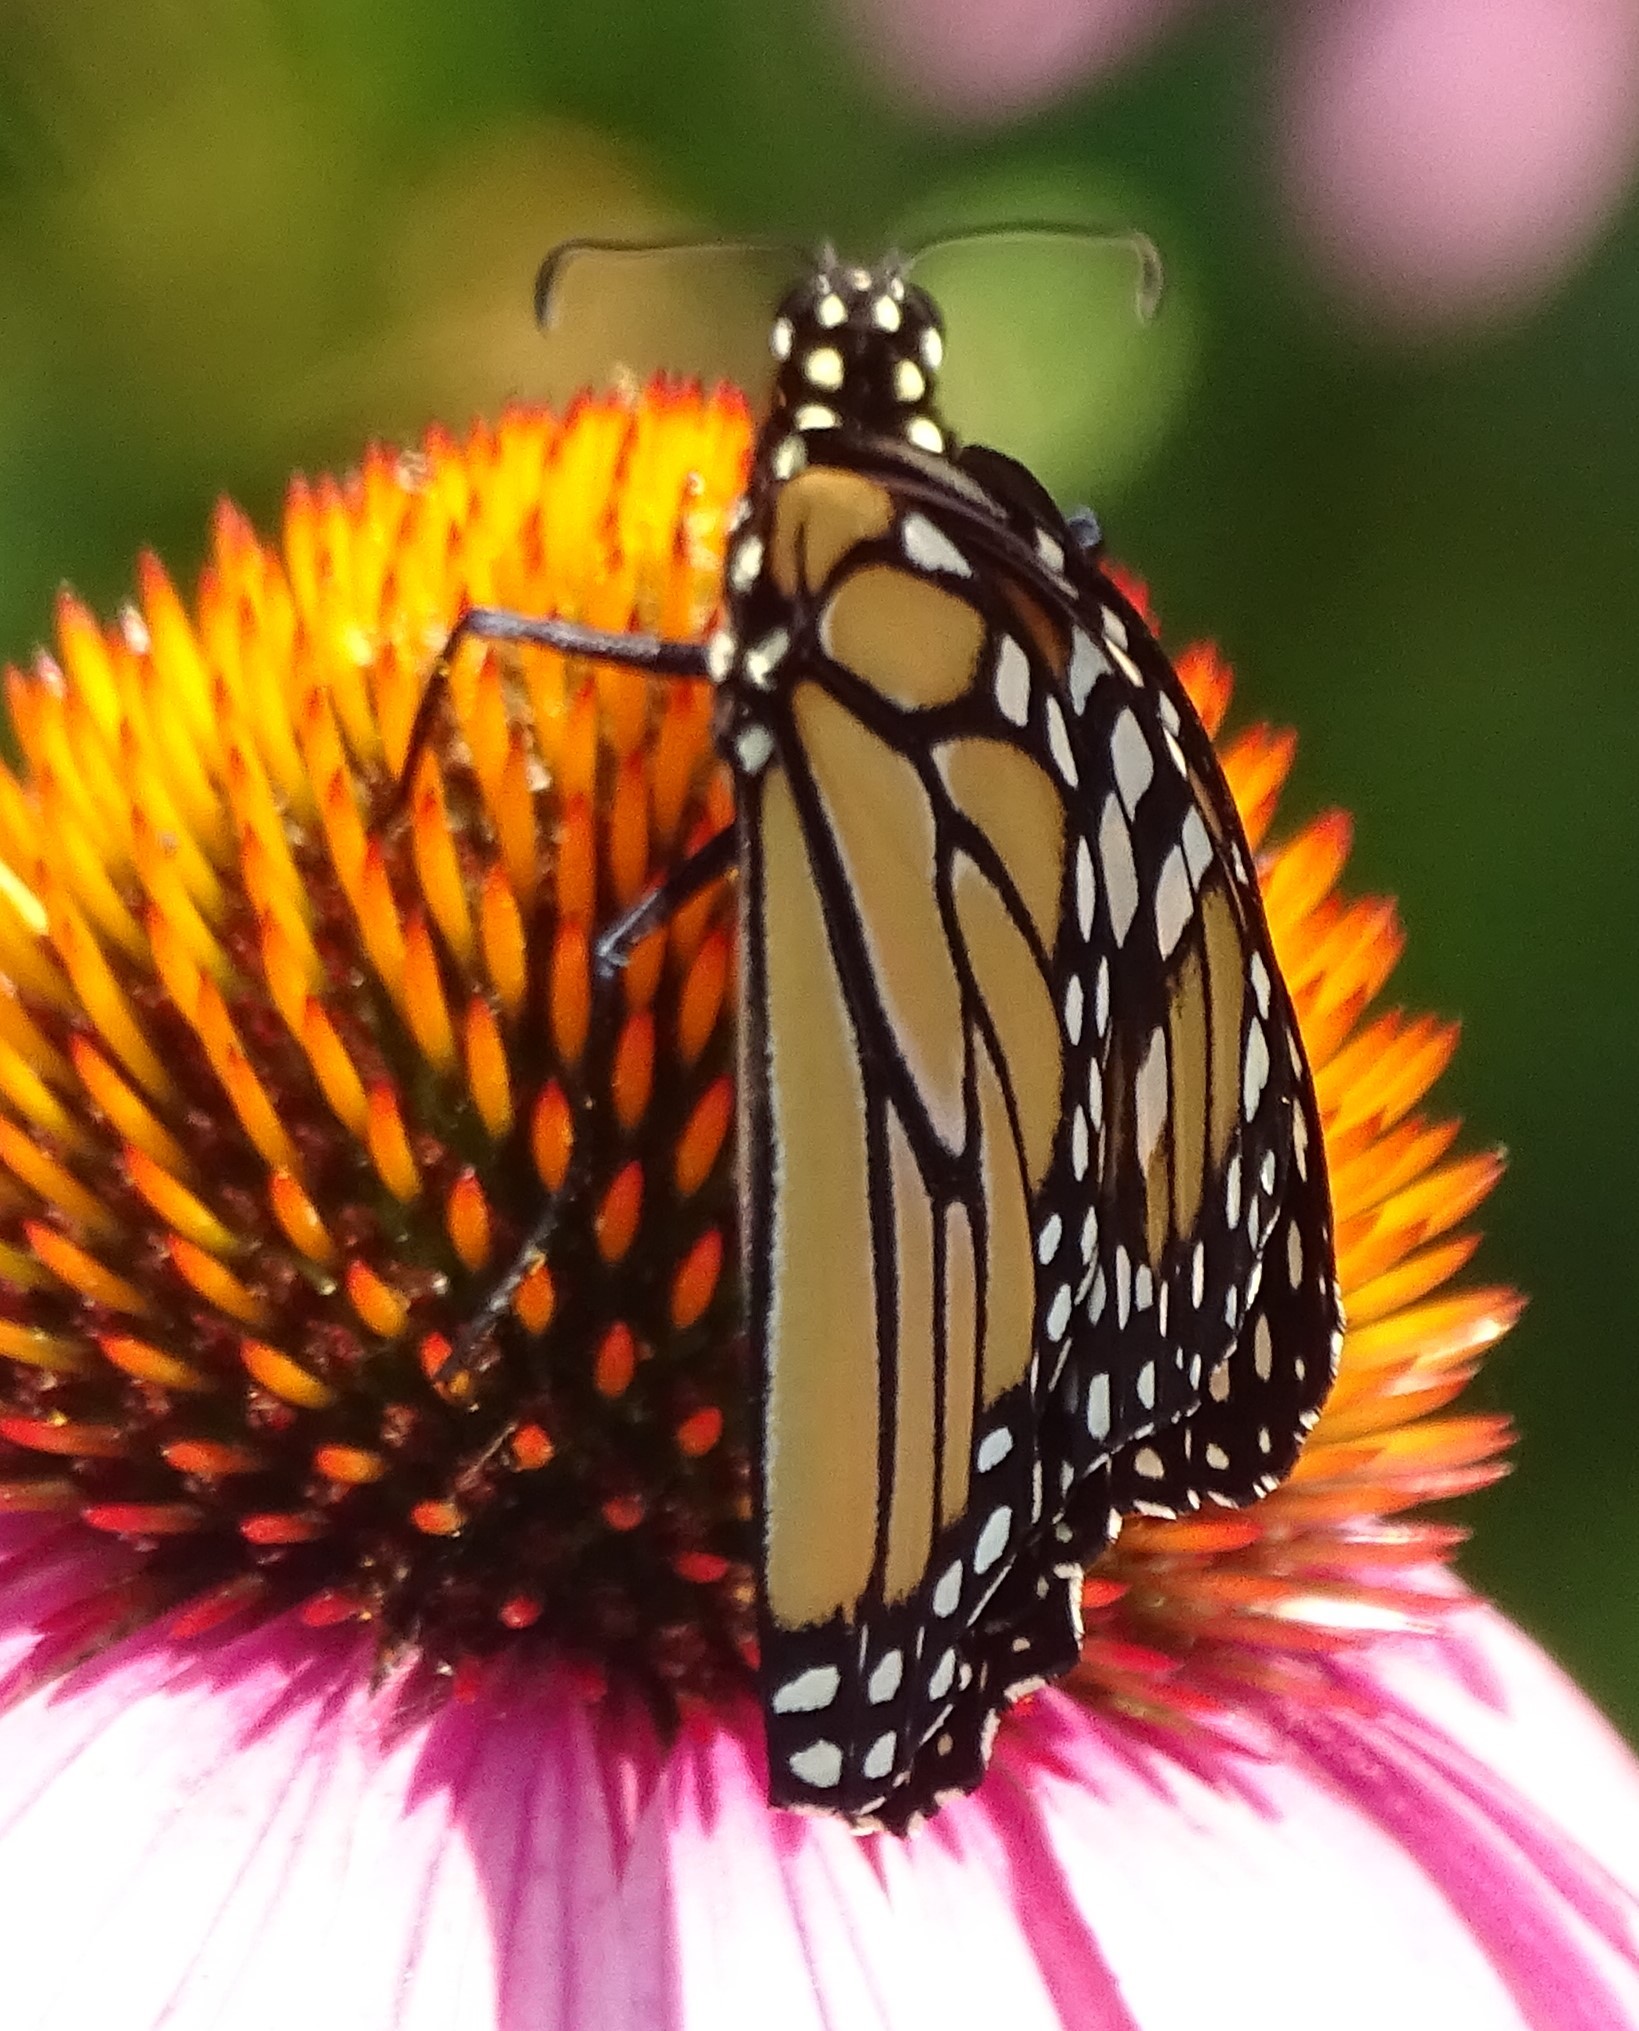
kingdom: Animalia
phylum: Arthropoda
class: Insecta
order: Lepidoptera
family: Nymphalidae
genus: Danaus
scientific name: Danaus plexippus
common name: Monarch
